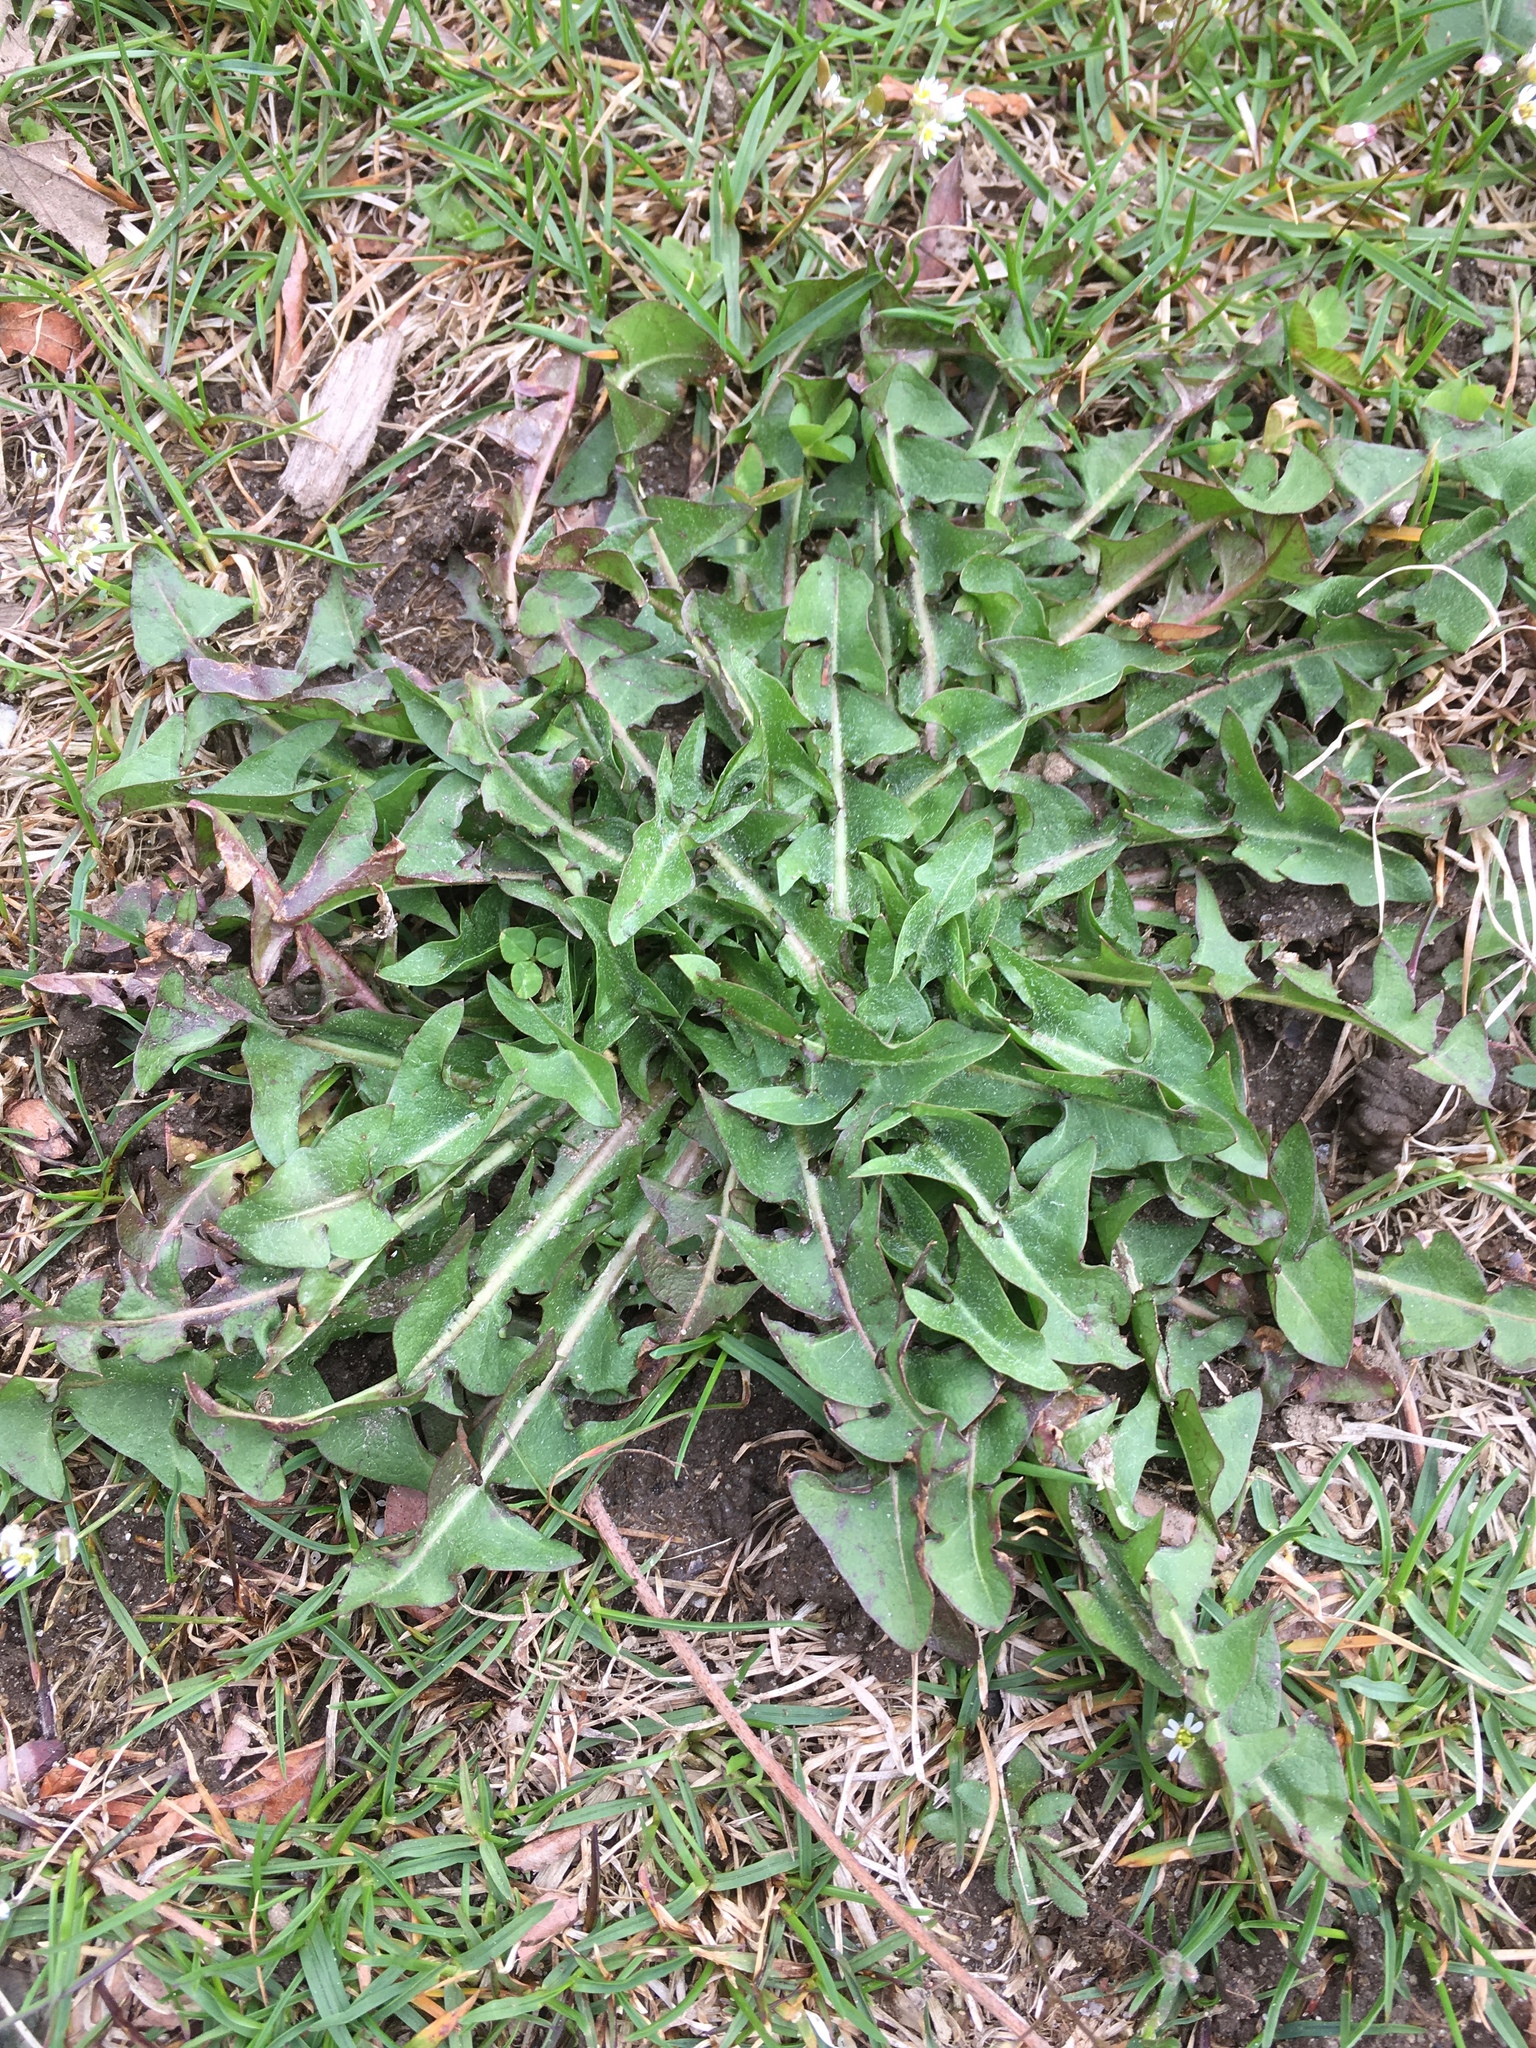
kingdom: Plantae
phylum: Tracheophyta
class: Magnoliopsida
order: Asterales
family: Asteraceae
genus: Taraxacum
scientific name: Taraxacum officinale
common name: Common dandelion
